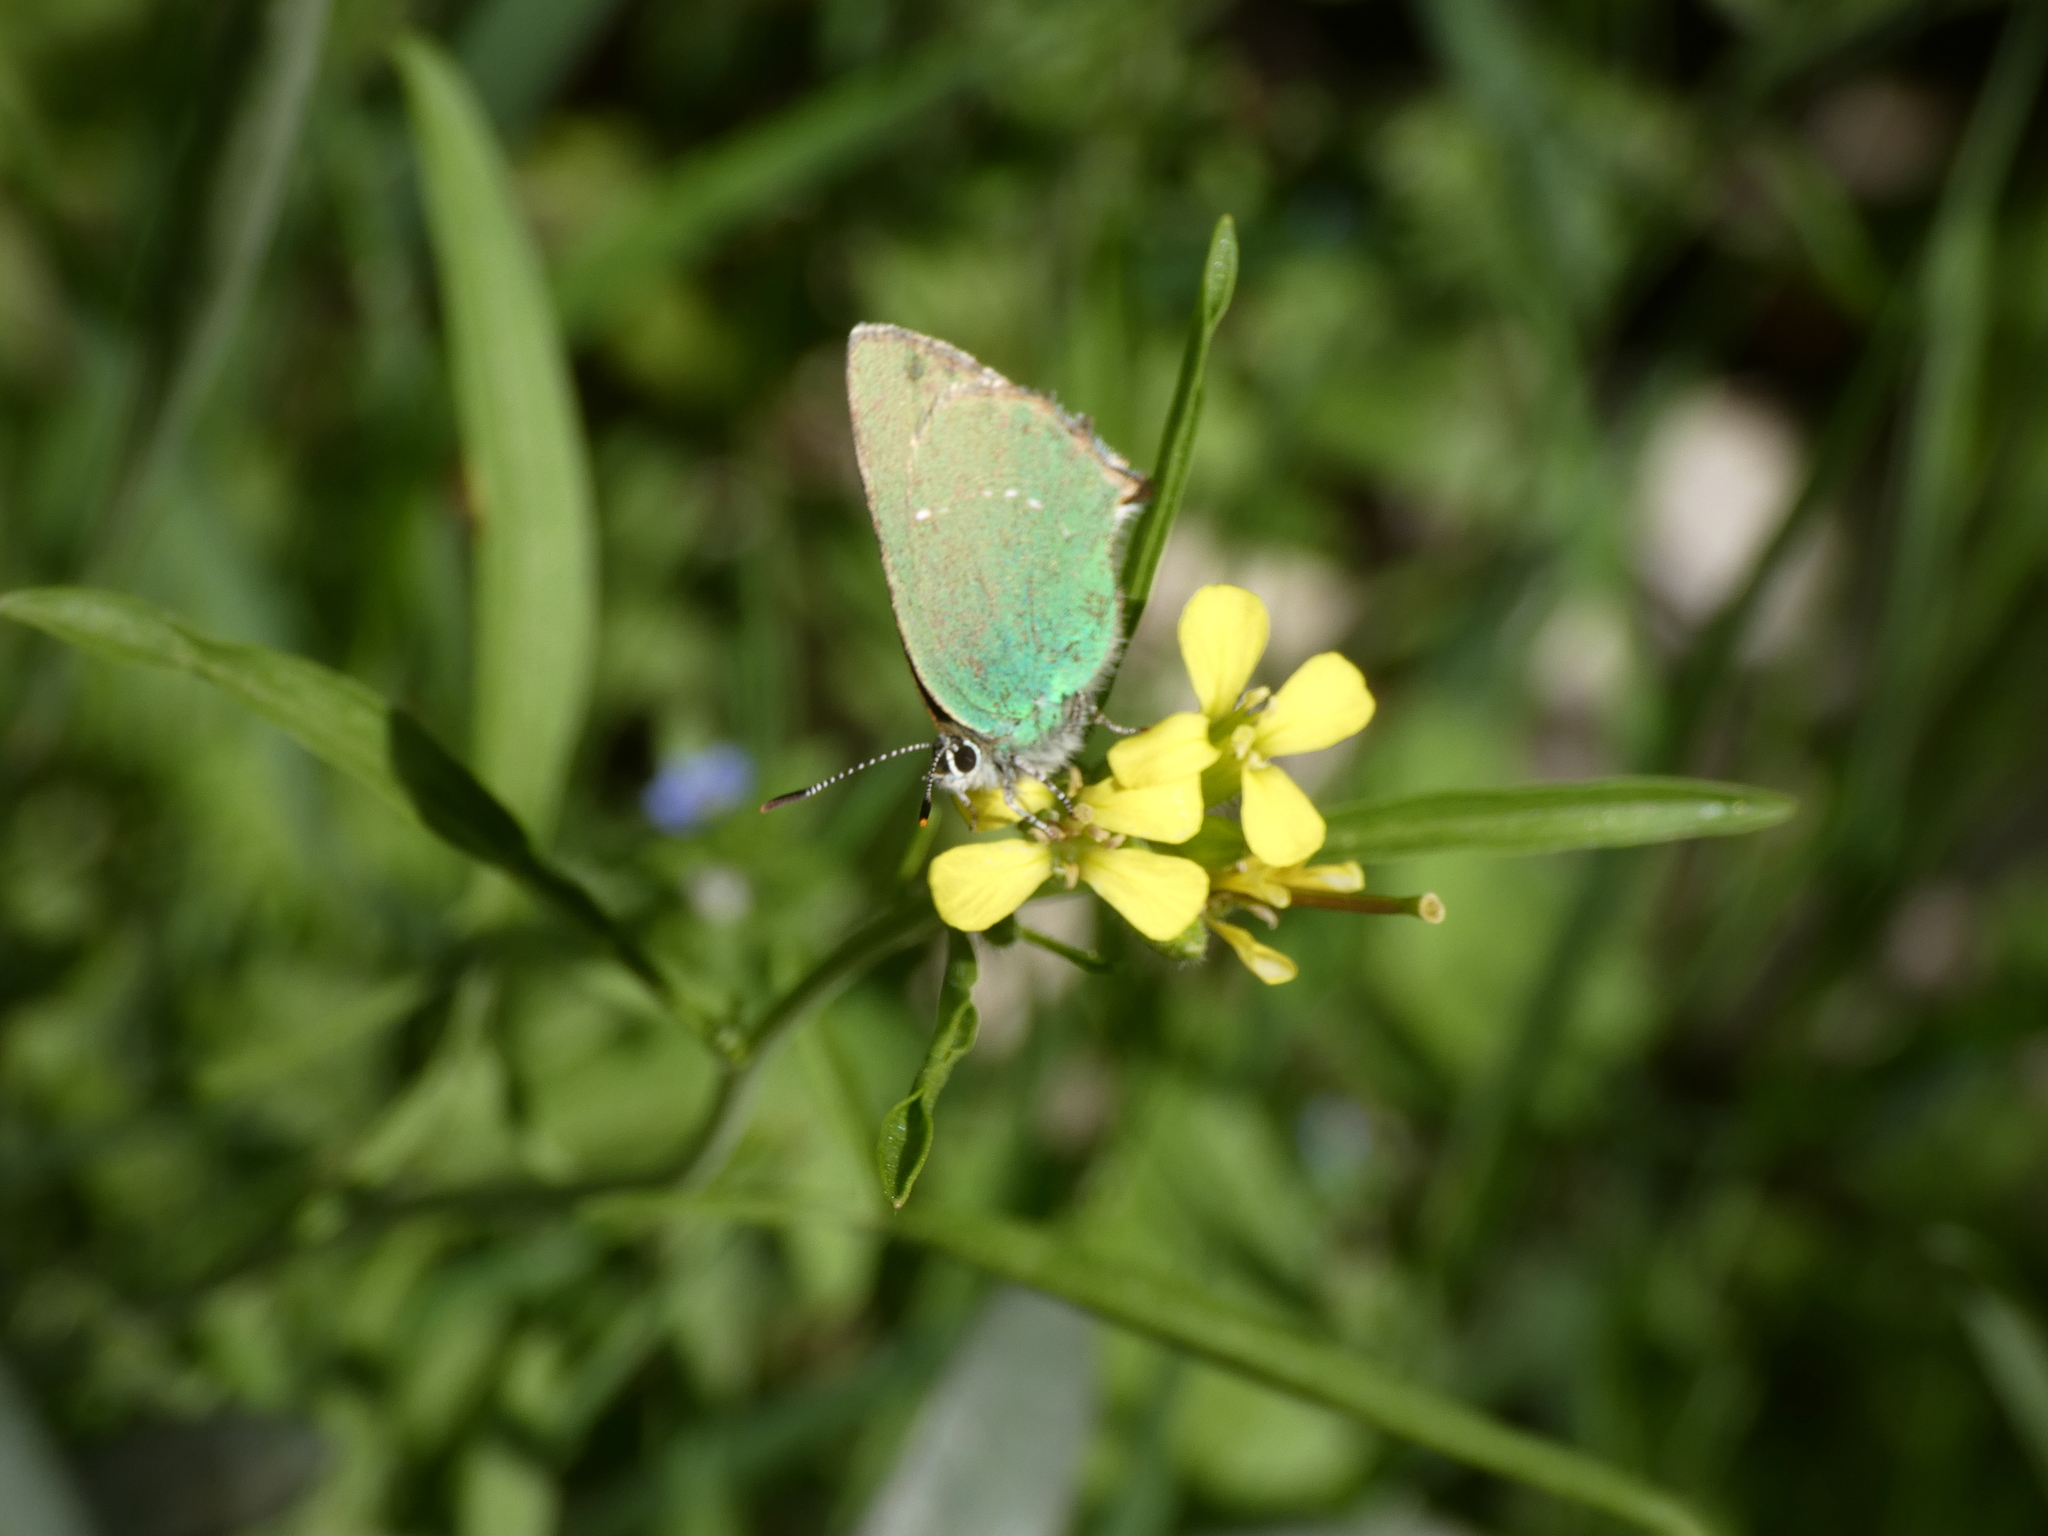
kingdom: Animalia
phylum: Arthropoda
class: Insecta
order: Lepidoptera
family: Lycaenidae
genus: Callophrys
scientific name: Callophrys rubi
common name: Green hairstreak
